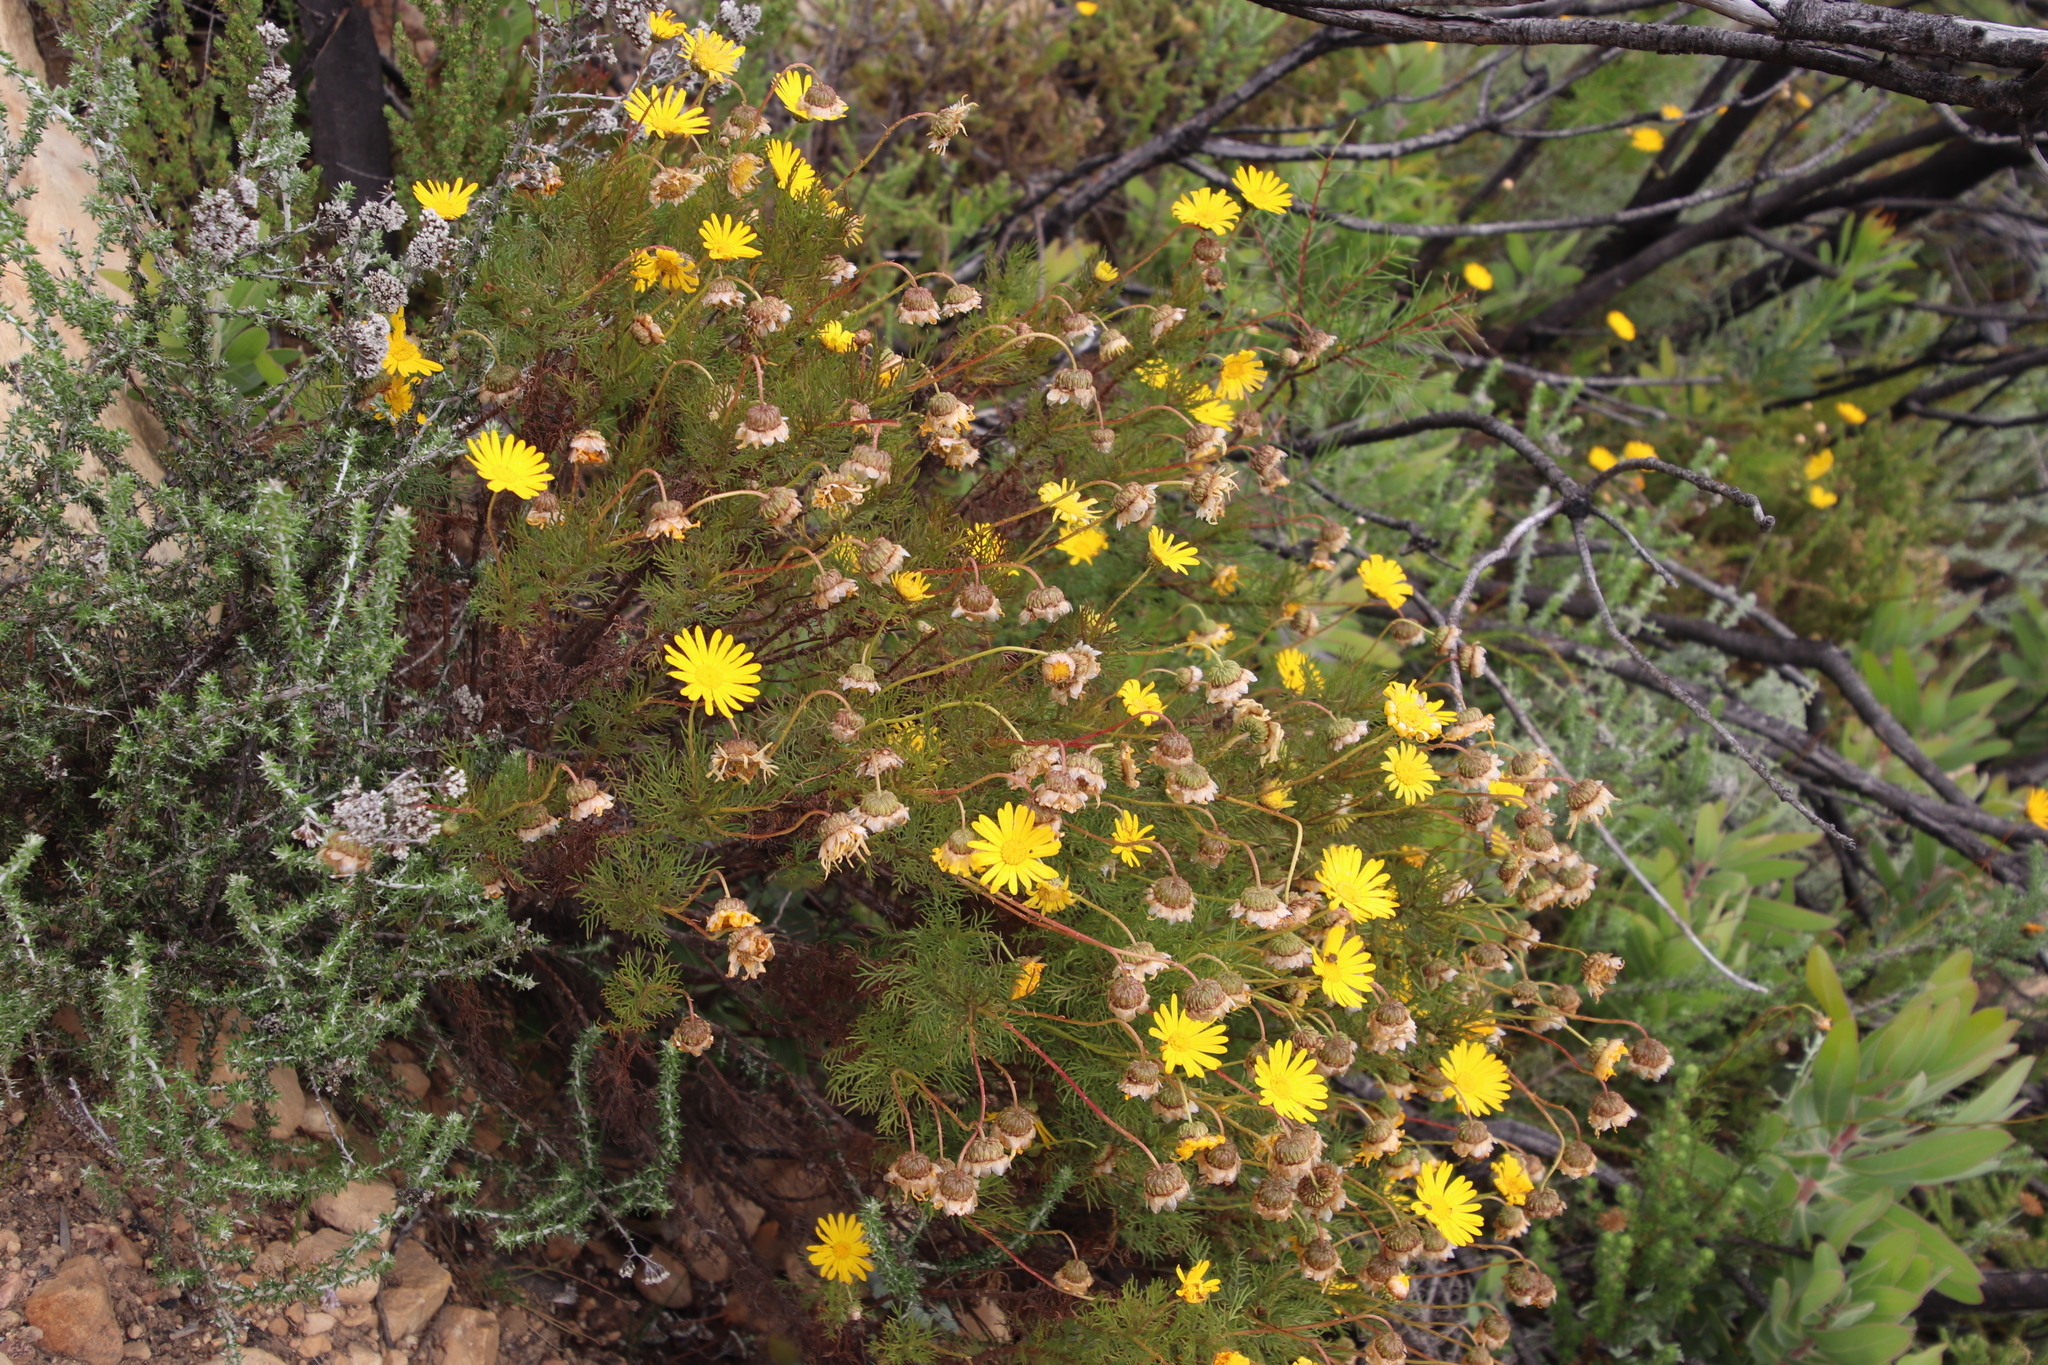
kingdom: Plantae
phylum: Tracheophyta
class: Magnoliopsida
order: Asterales
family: Asteraceae
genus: Euryops
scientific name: Euryops abrotanifolius
